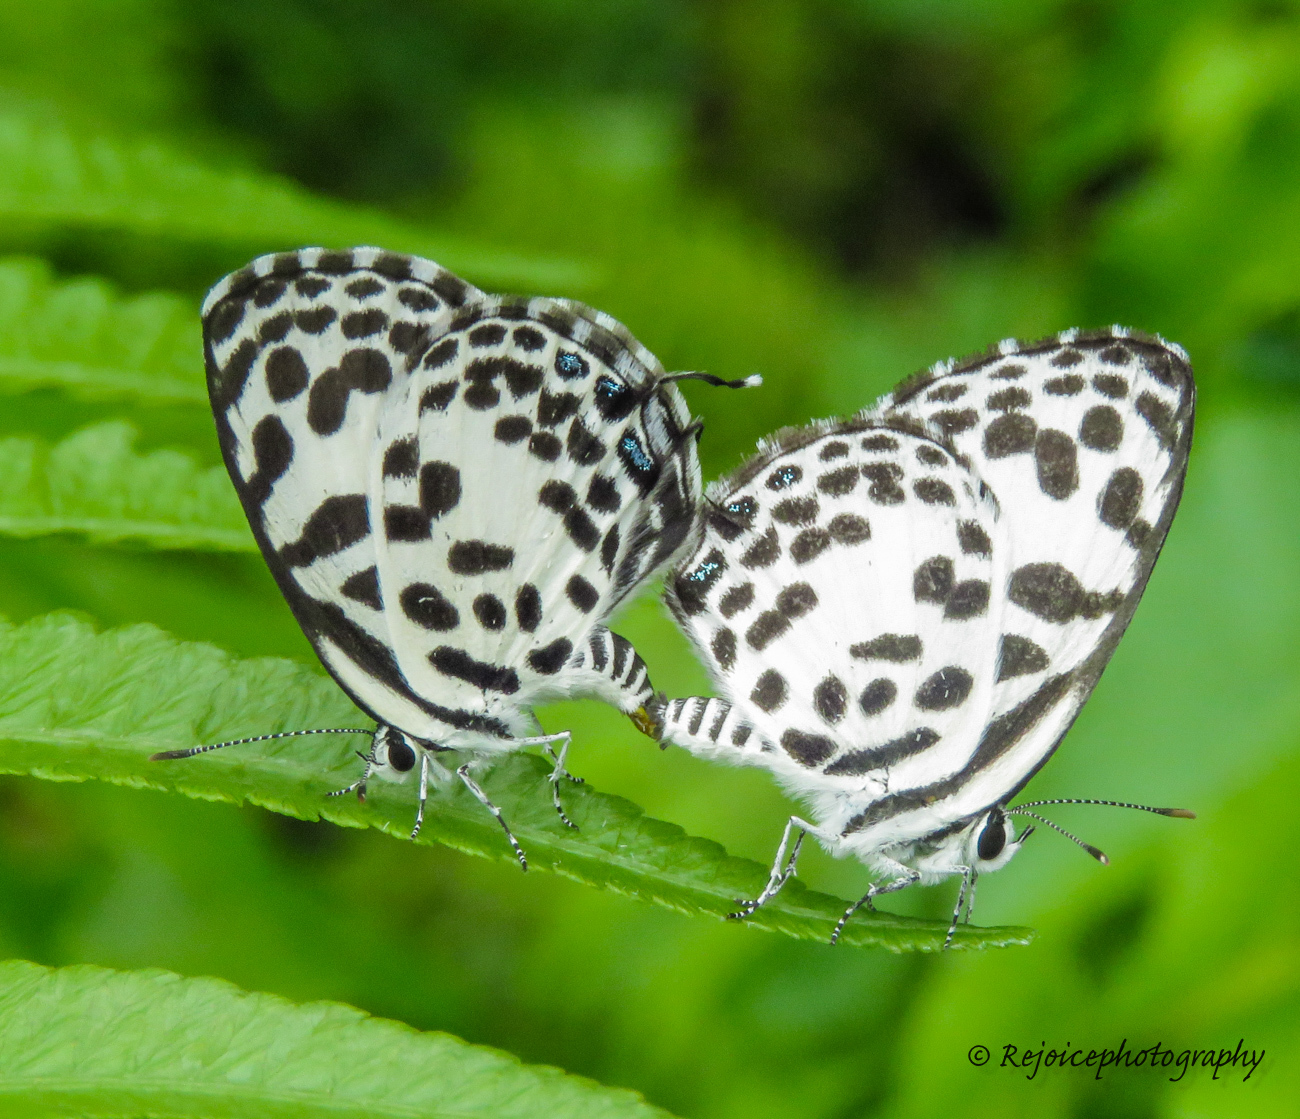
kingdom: Animalia
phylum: Arthropoda
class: Insecta
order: Lepidoptera
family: Lycaenidae
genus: Castalius
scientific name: Castalius rosimon
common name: Common pierrot
